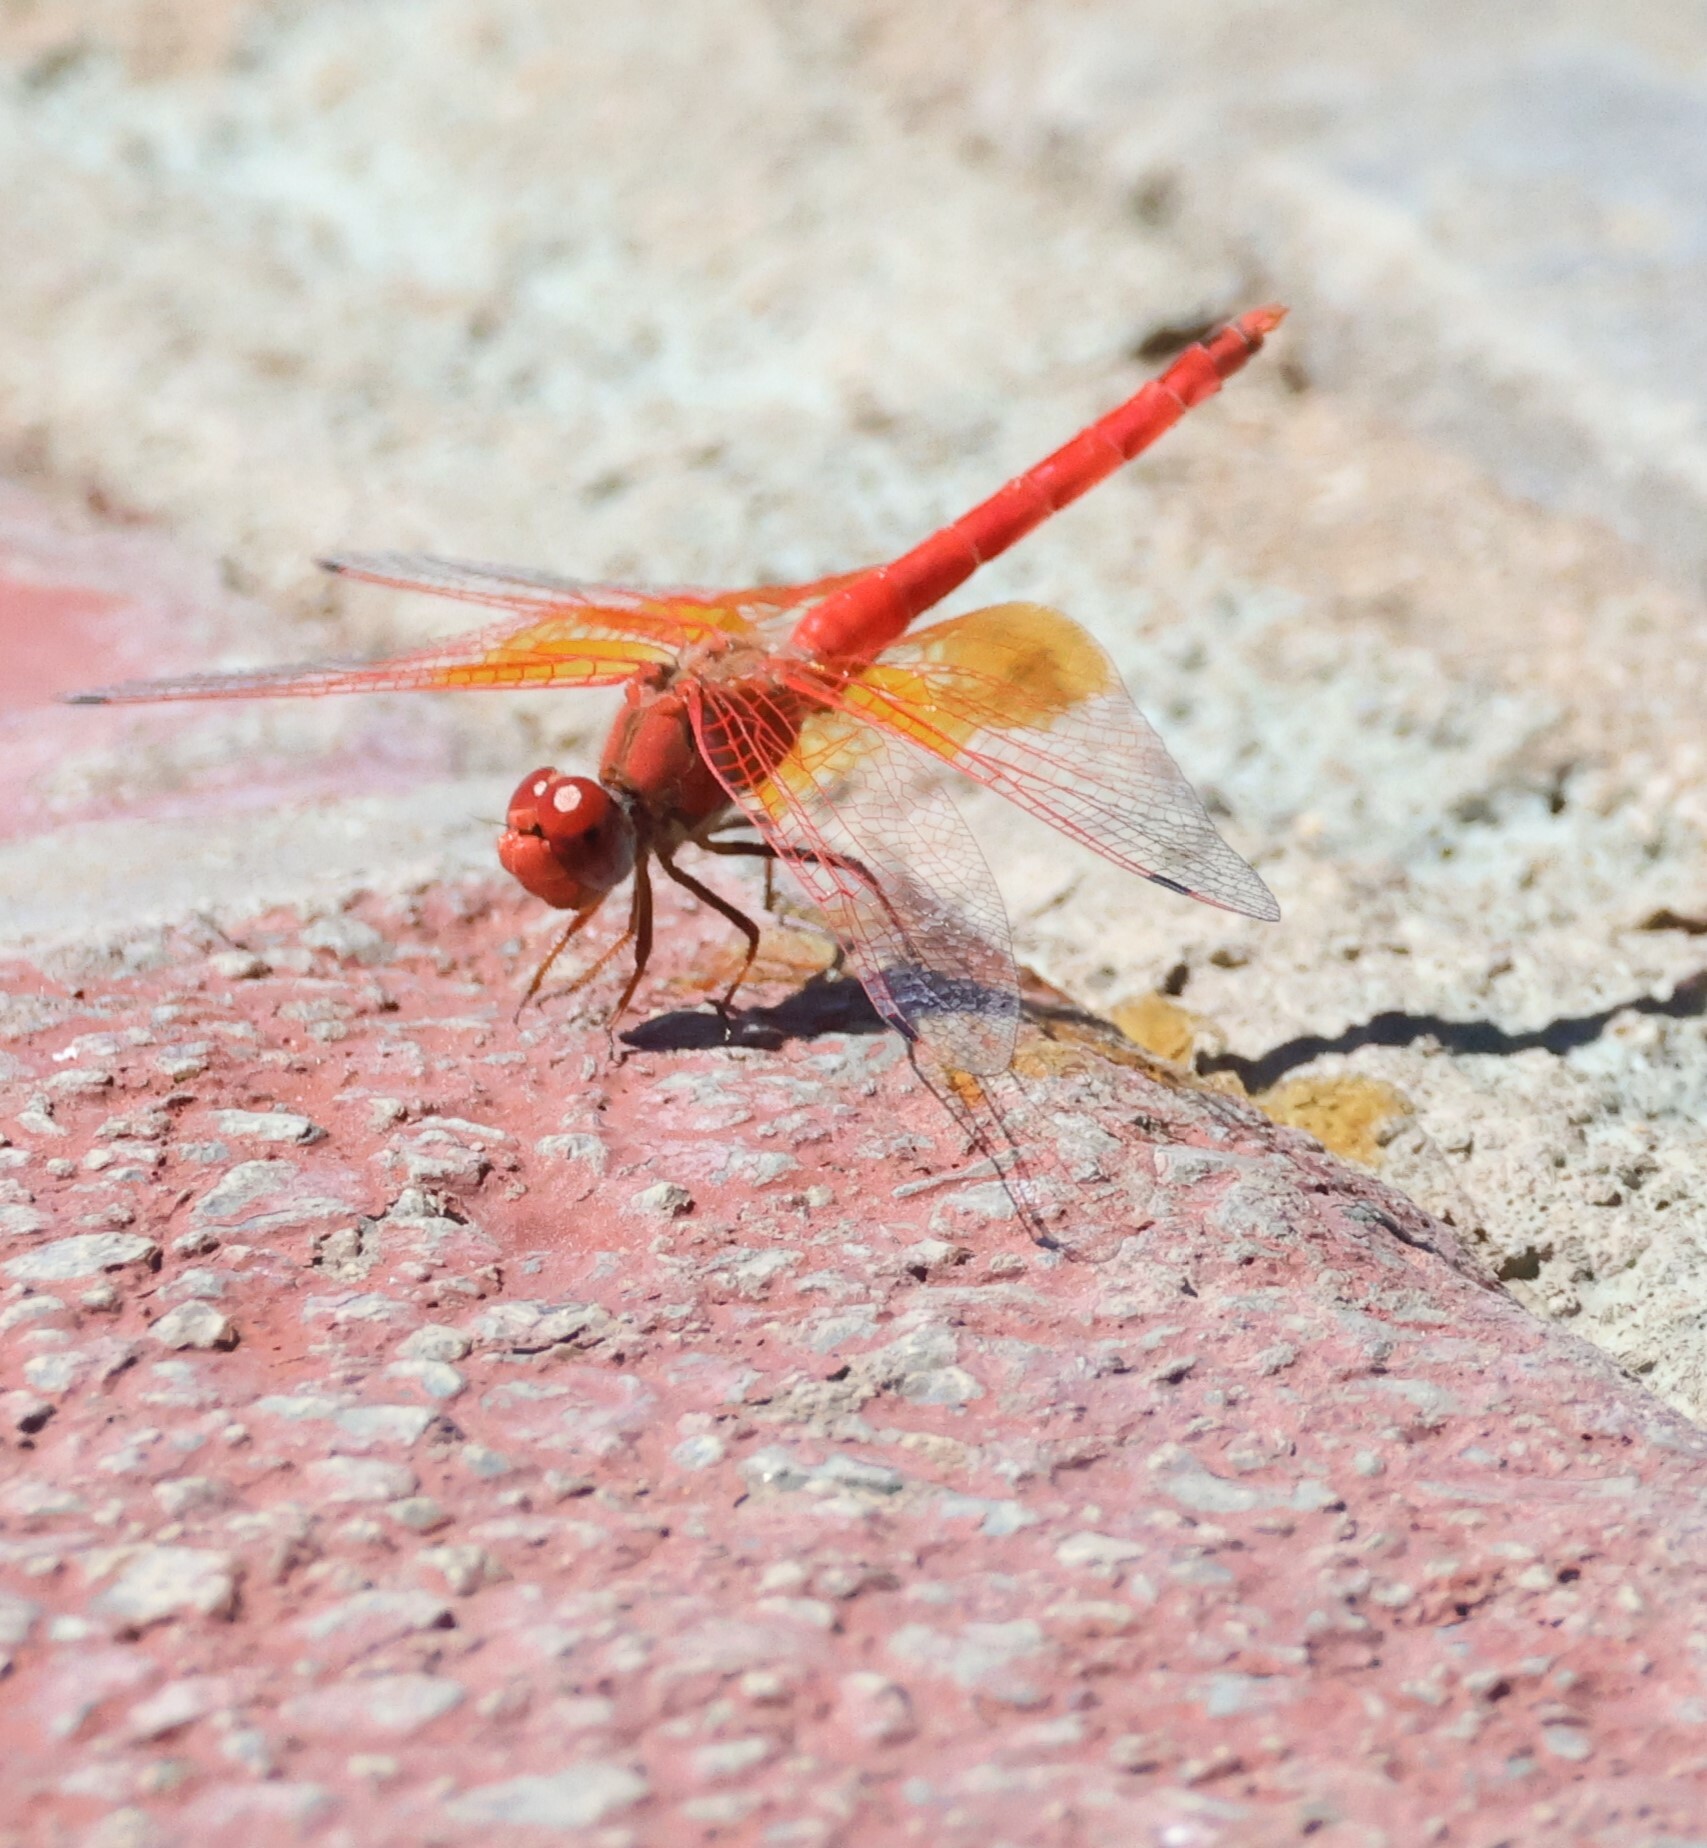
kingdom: Animalia
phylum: Arthropoda
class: Insecta
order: Odonata
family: Libellulidae
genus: Trithemis
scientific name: Trithemis kirbyi
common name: Kirby's dropwing
